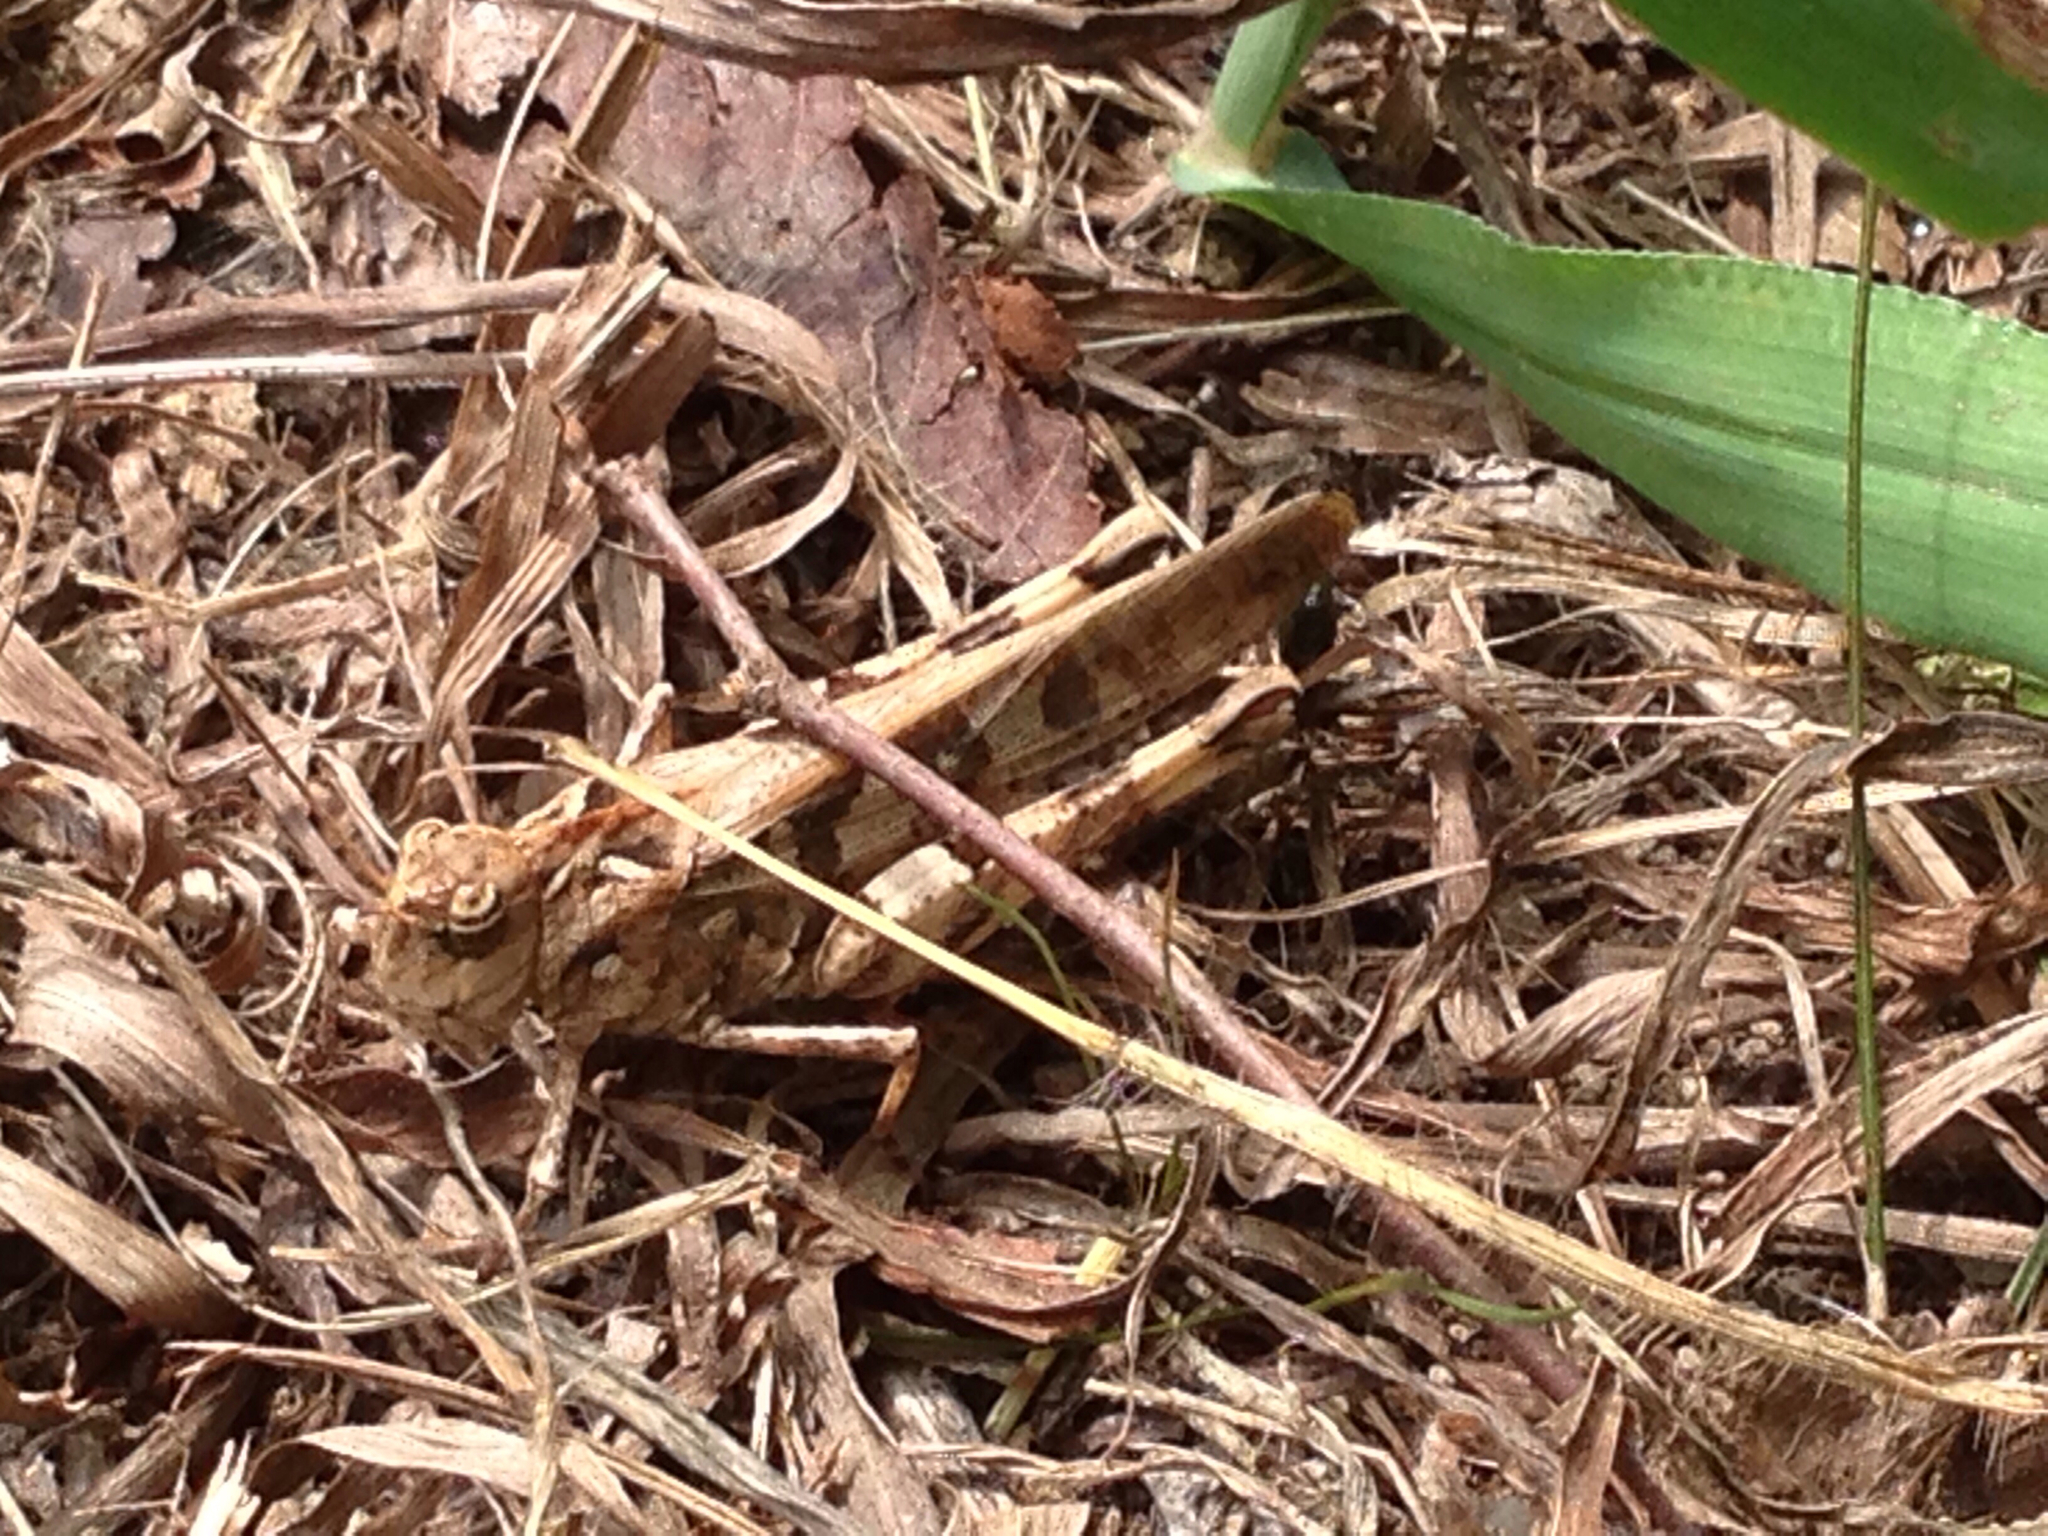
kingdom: Animalia
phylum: Arthropoda
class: Insecta
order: Orthoptera
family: Acrididae
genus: Oedaleus
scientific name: Oedaleus infernalis
